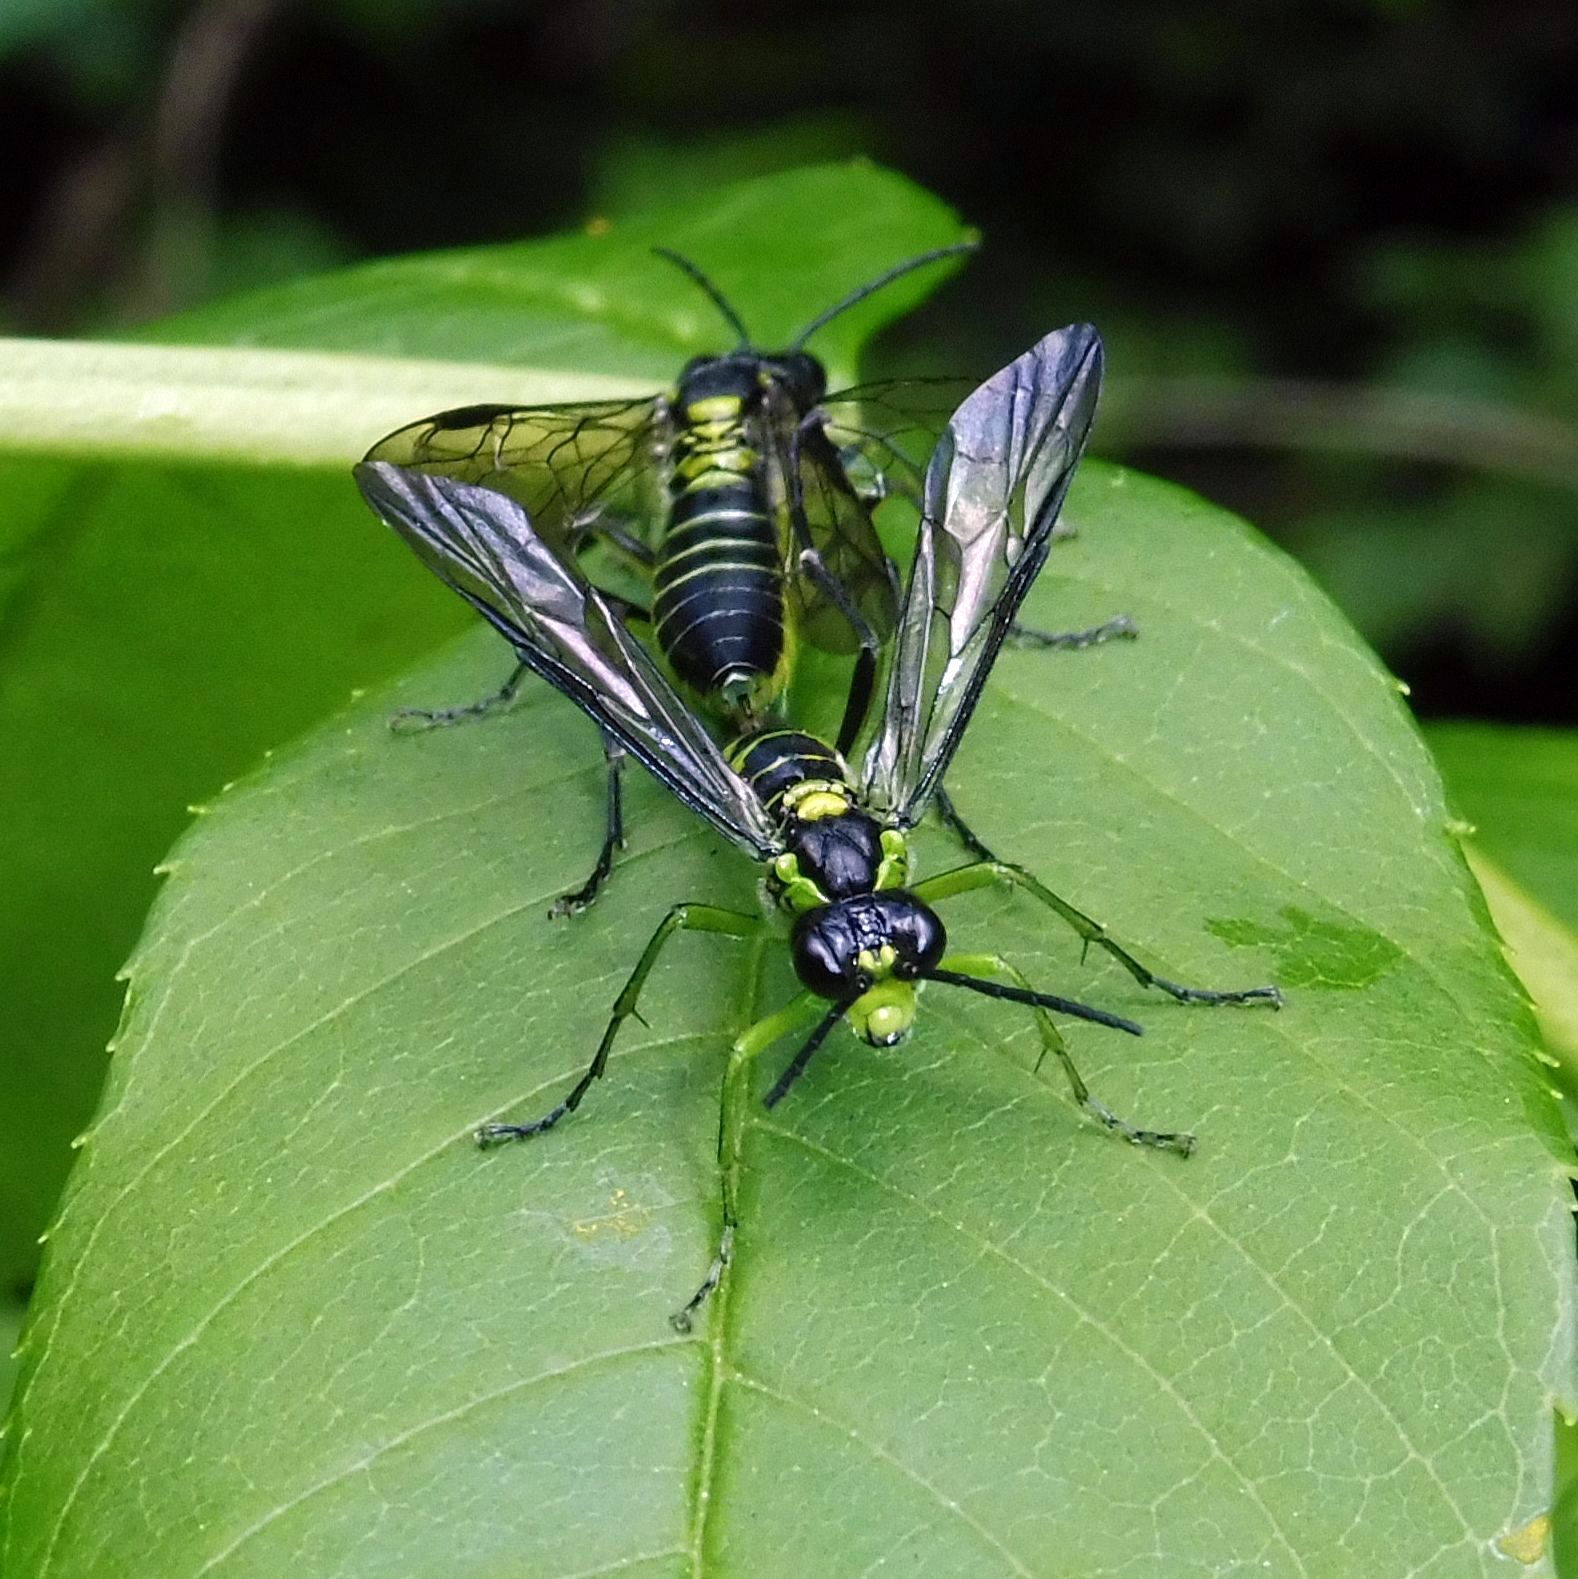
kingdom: Animalia
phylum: Arthropoda
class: Insecta
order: Hymenoptera
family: Tenthredinidae
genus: Tenthredo
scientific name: Tenthredo mesomela
